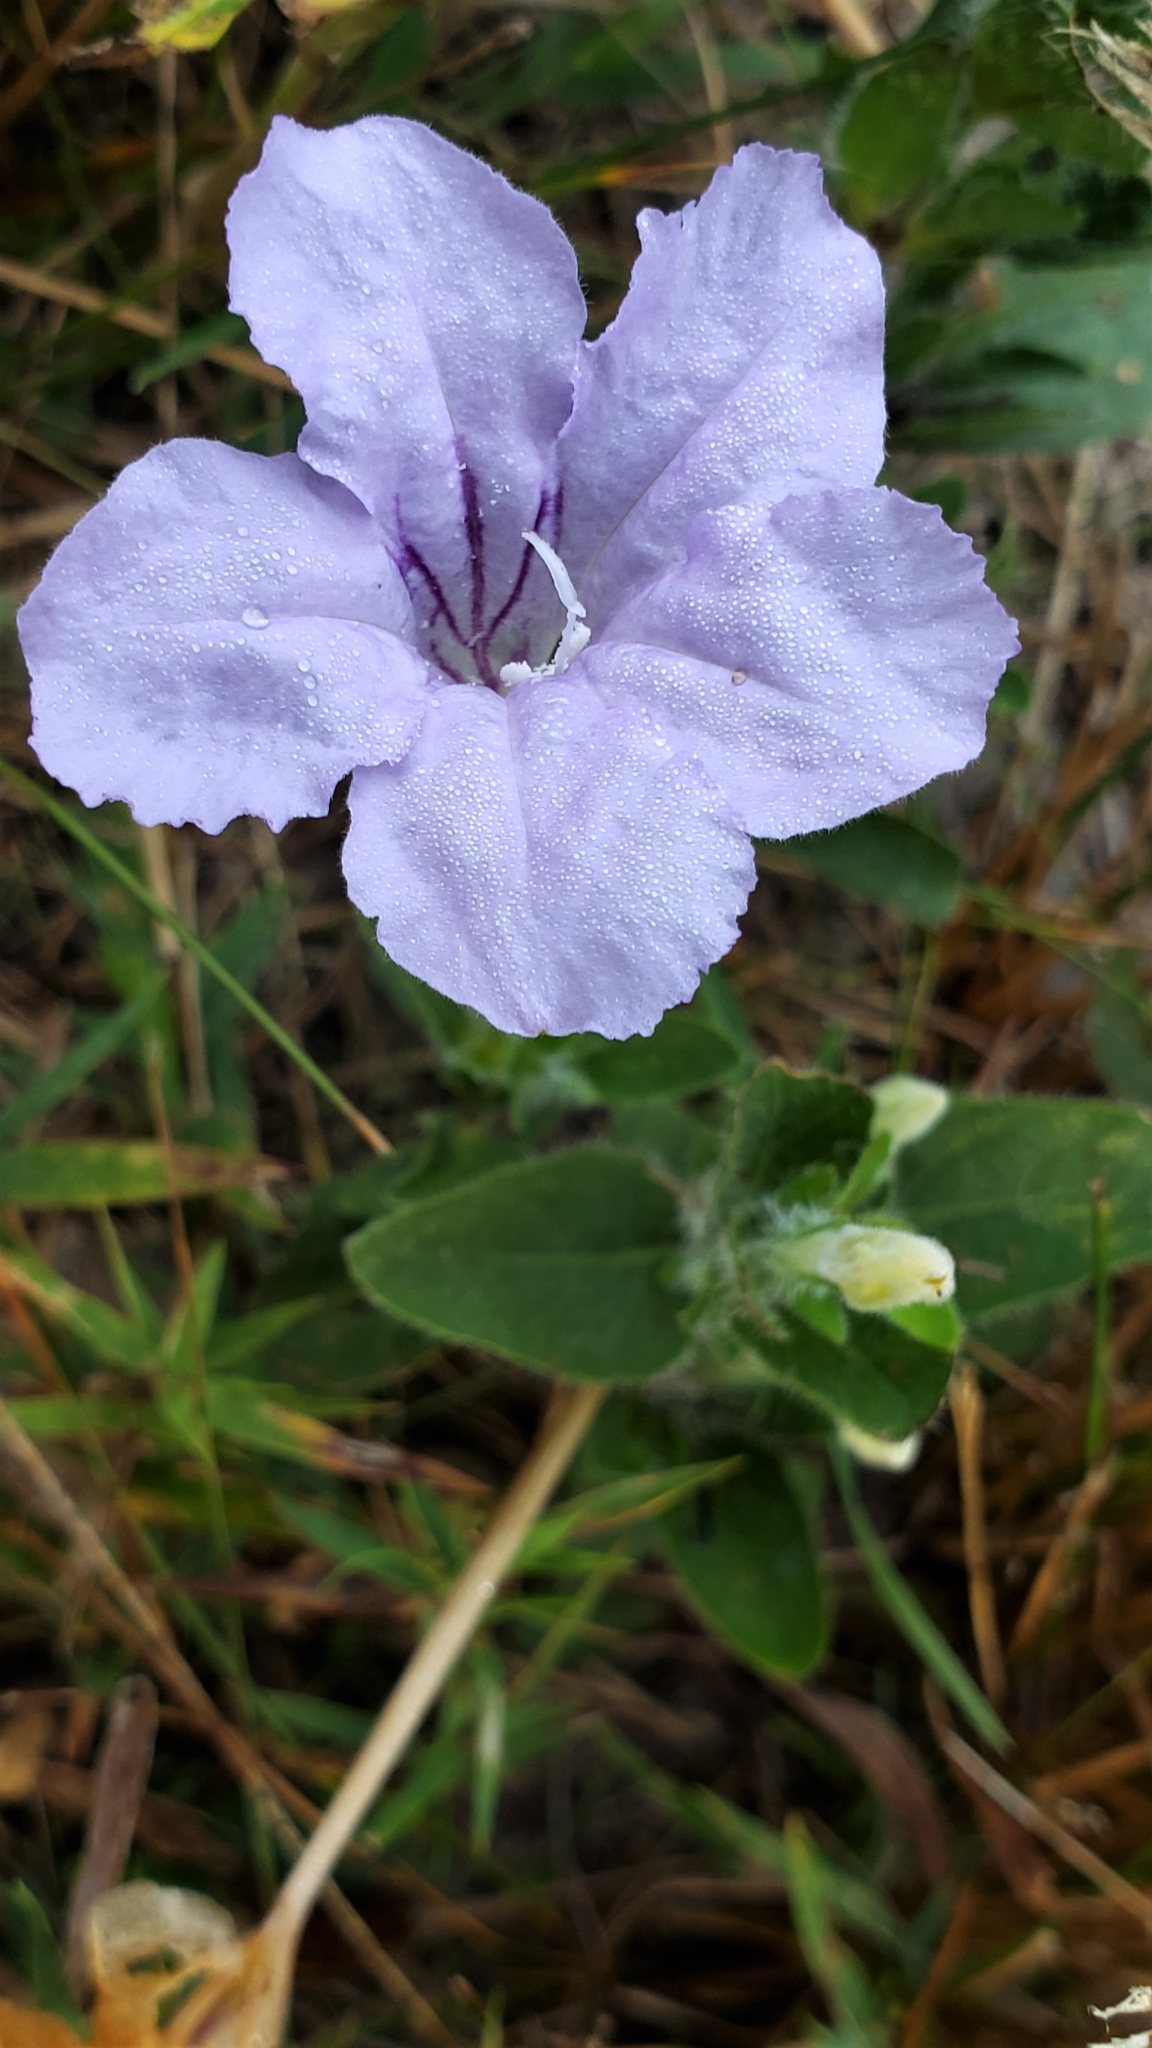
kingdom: Plantae
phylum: Tracheophyta
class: Magnoliopsida
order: Lamiales
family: Acanthaceae
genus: Ruellia
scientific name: Ruellia humilis
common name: Fringe-leaf ruellia
